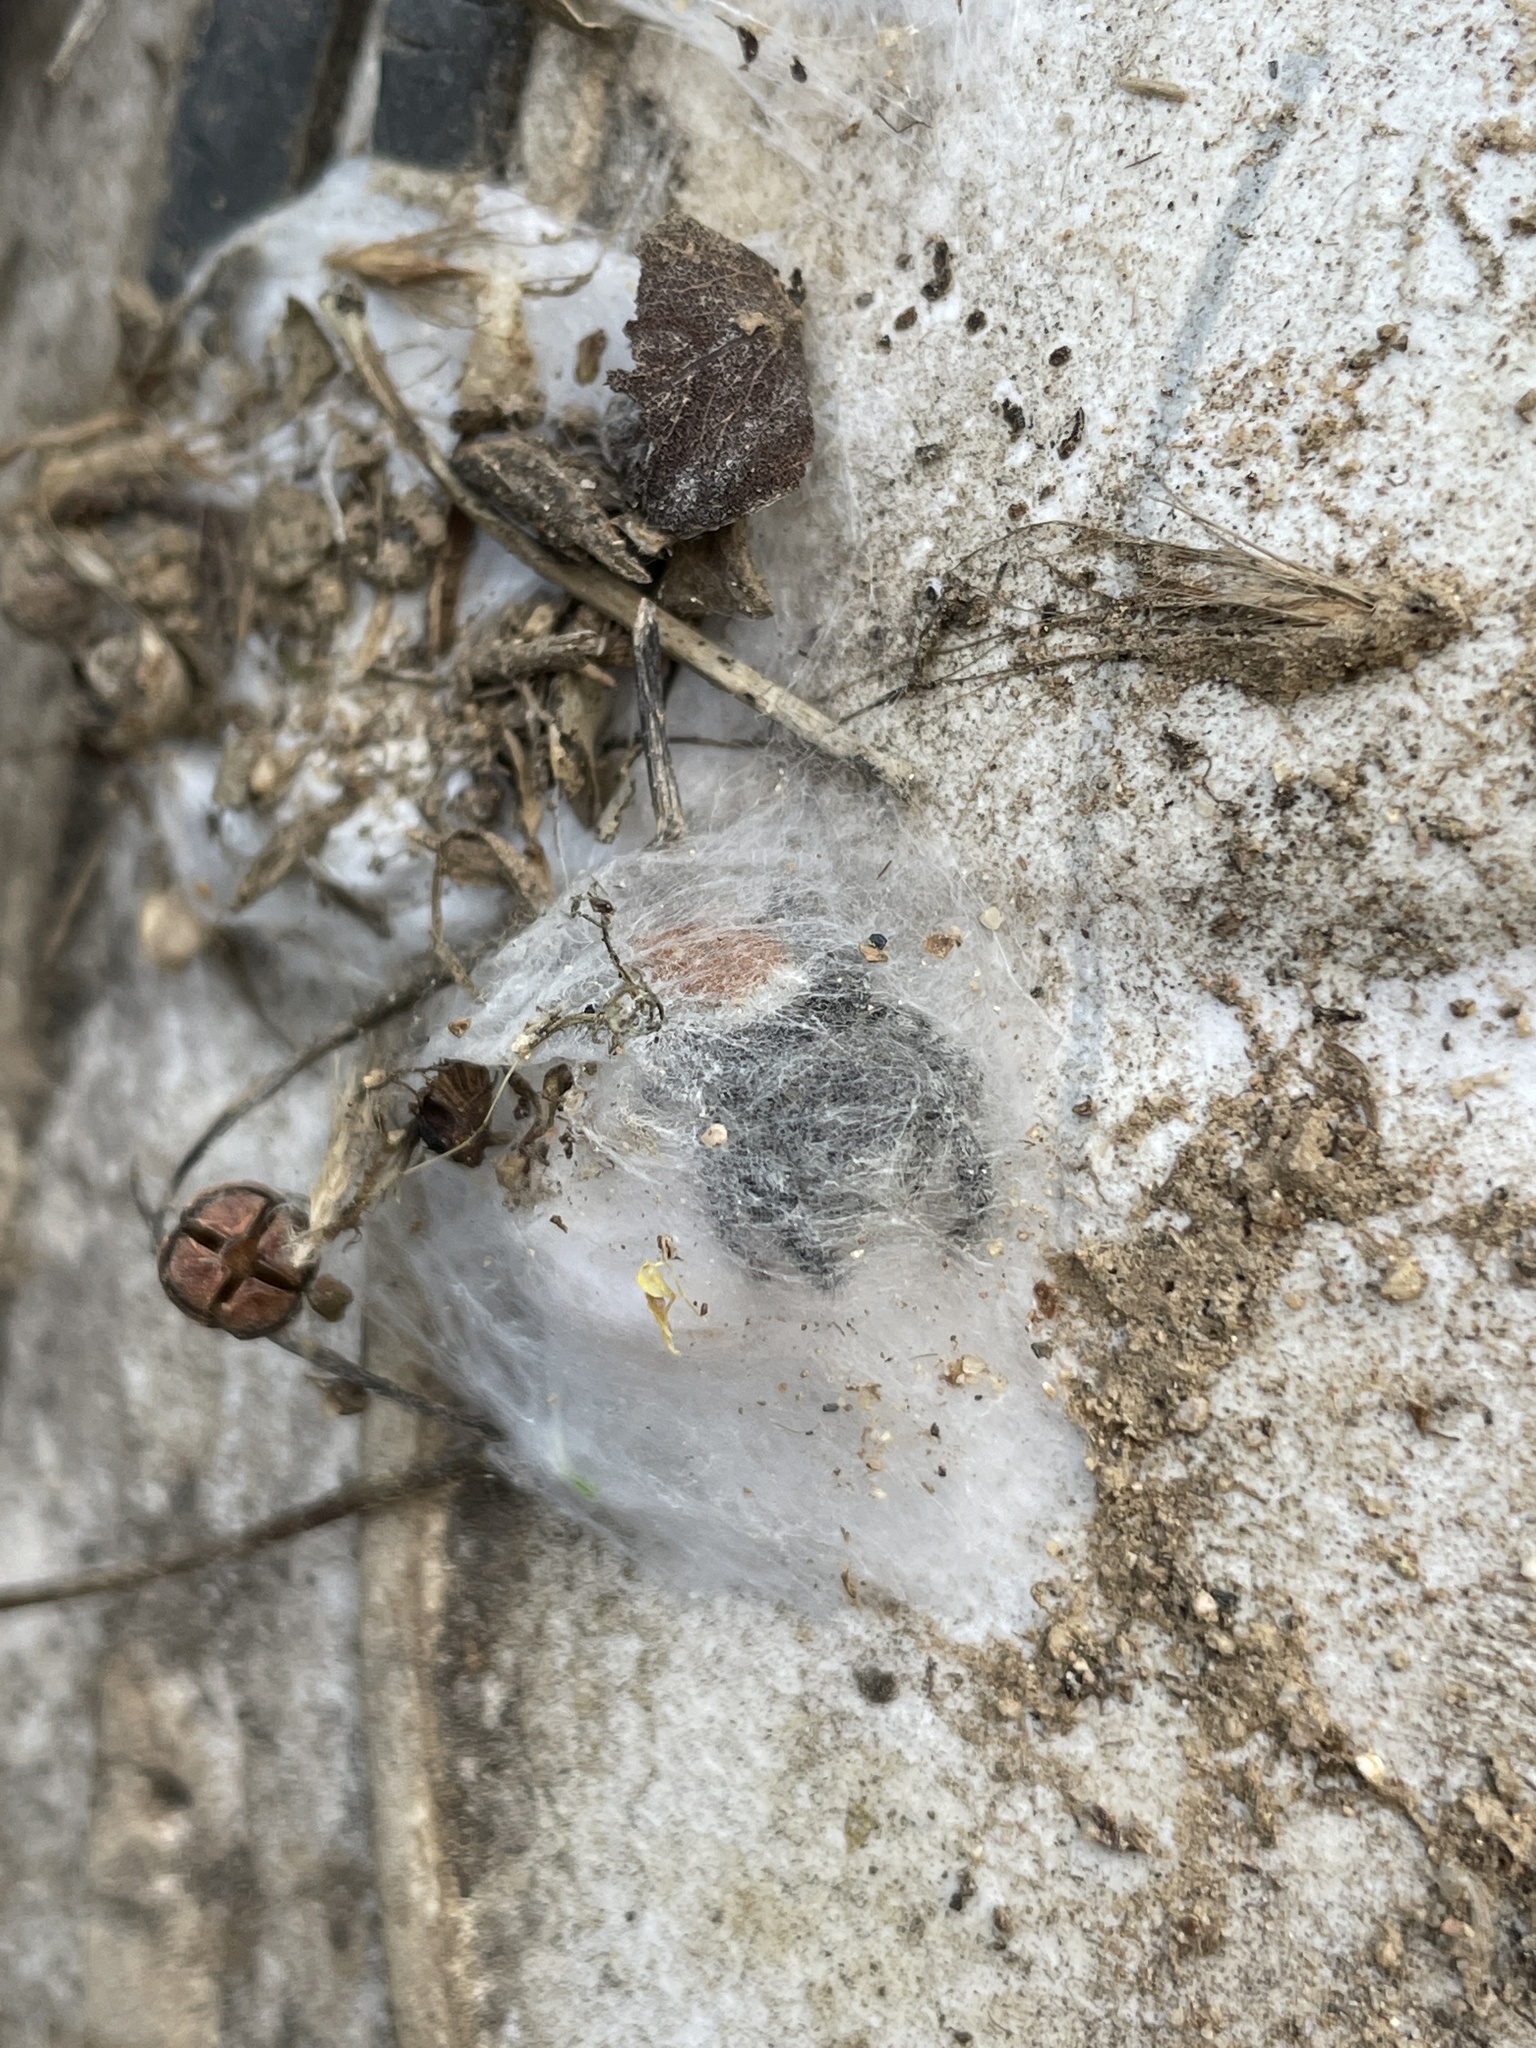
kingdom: Animalia
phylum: Arthropoda
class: Arachnida
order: Araneae
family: Salticidae
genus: Phidippus
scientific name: Phidippus adumbratus
